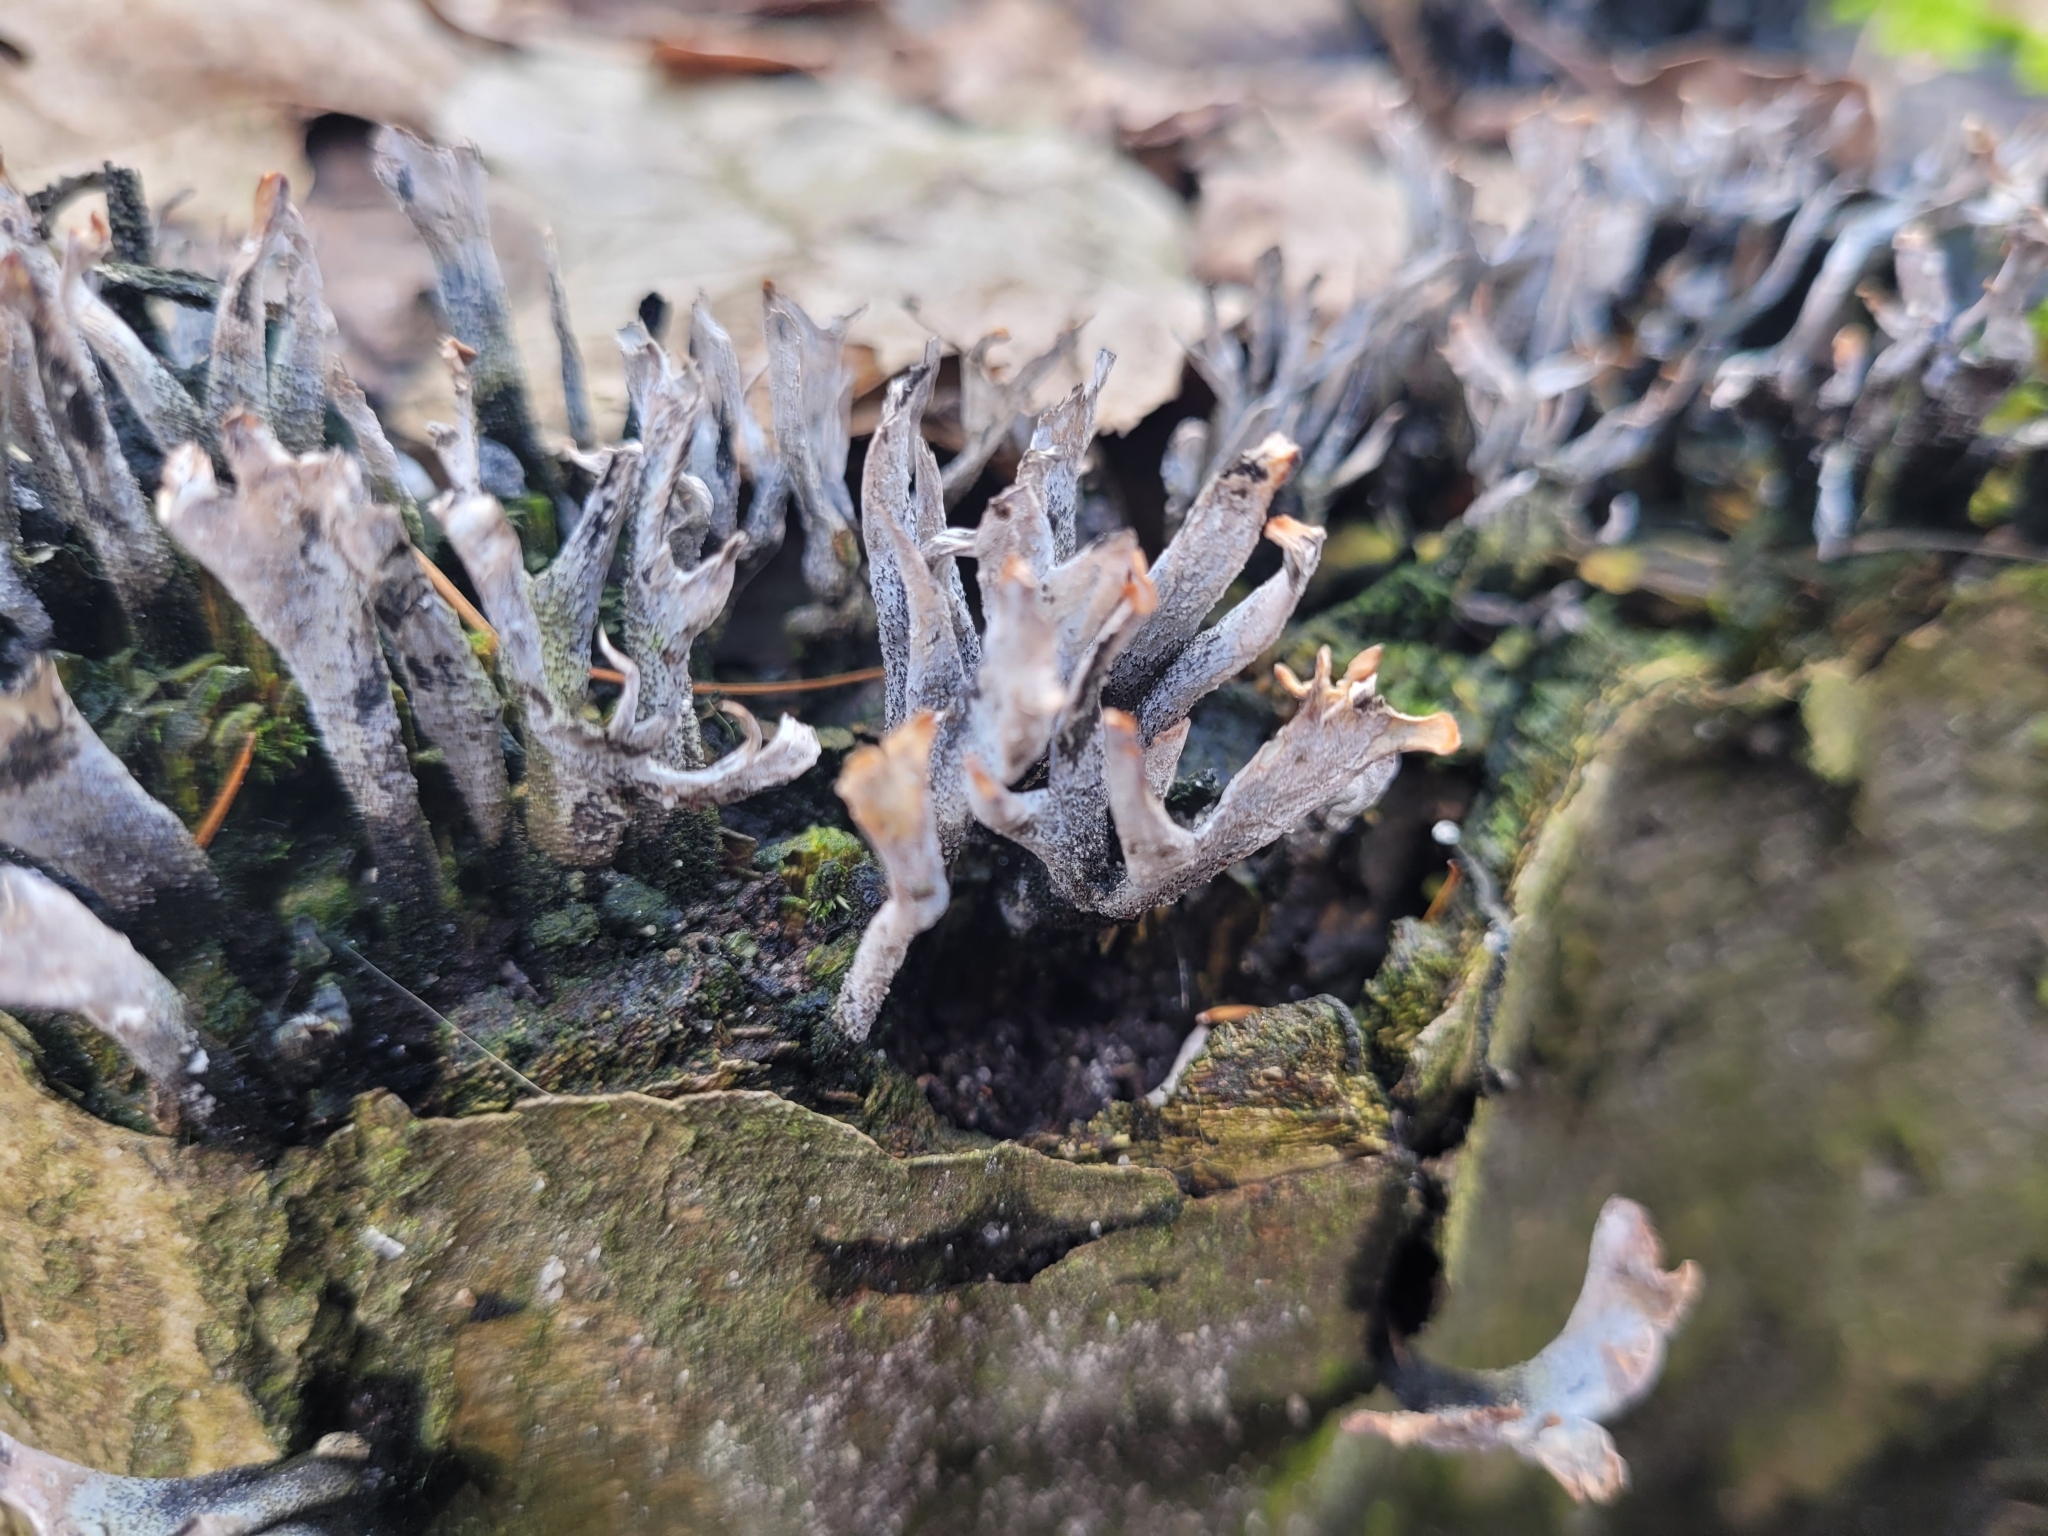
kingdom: Fungi
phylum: Ascomycota
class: Sordariomycetes
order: Xylariales
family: Xylariaceae
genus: Xylaria
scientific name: Xylaria hypoxylon
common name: Candle-snuff fungus
